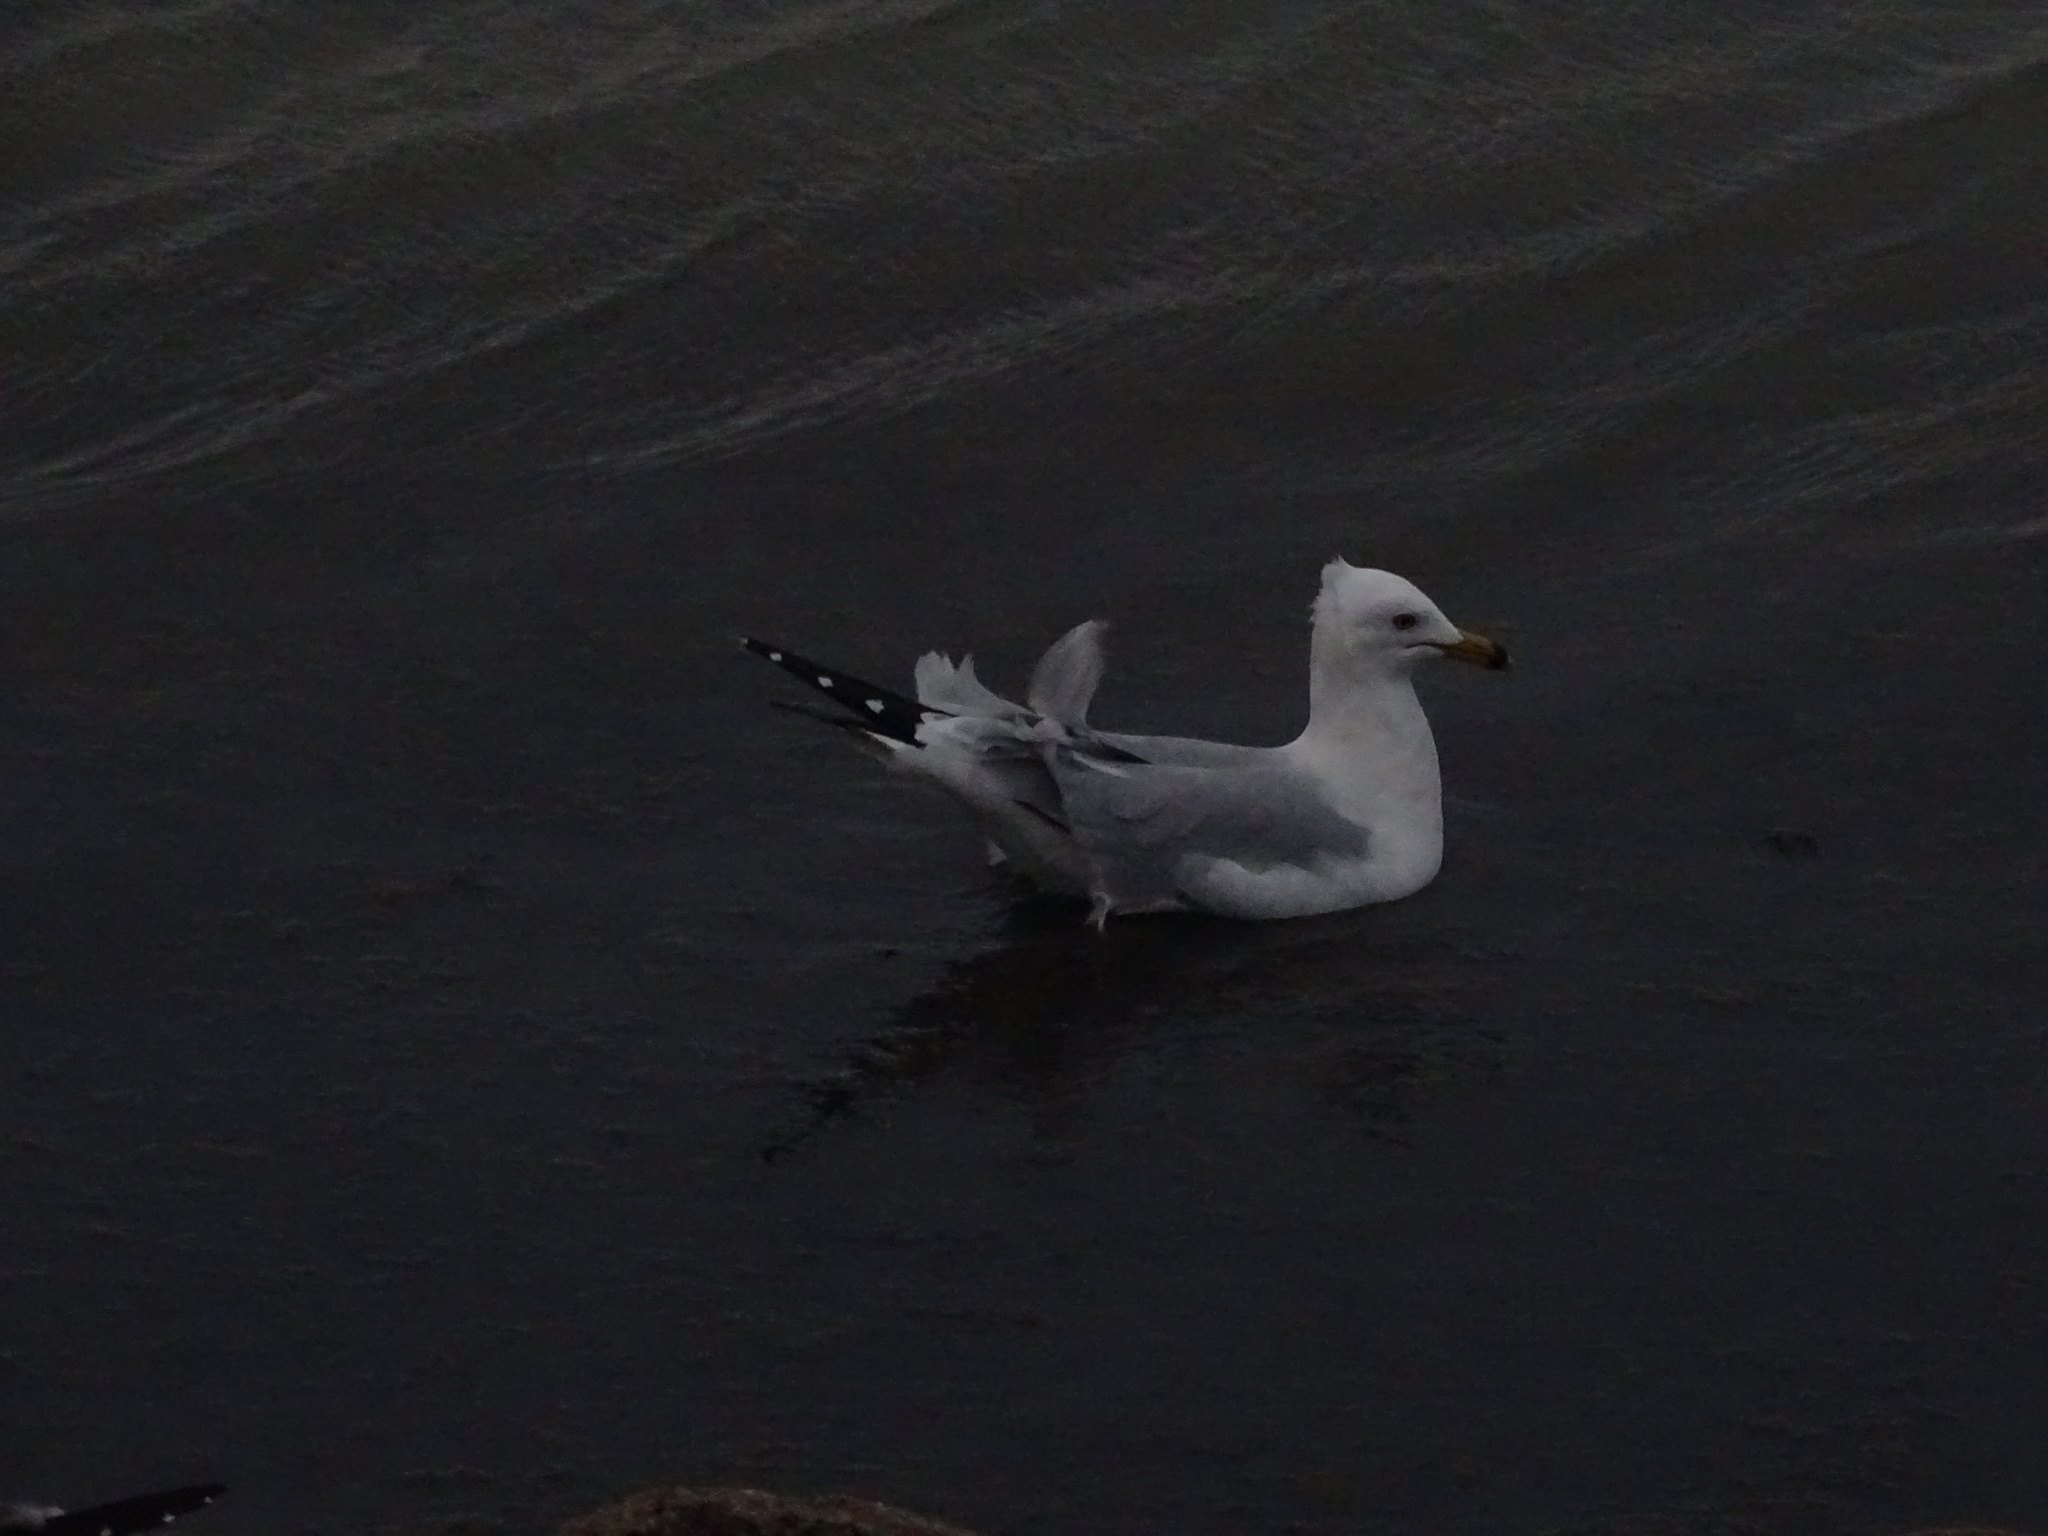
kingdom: Animalia
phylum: Chordata
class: Aves
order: Charadriiformes
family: Laridae
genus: Larus
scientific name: Larus delawarensis
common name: Ring-billed gull
